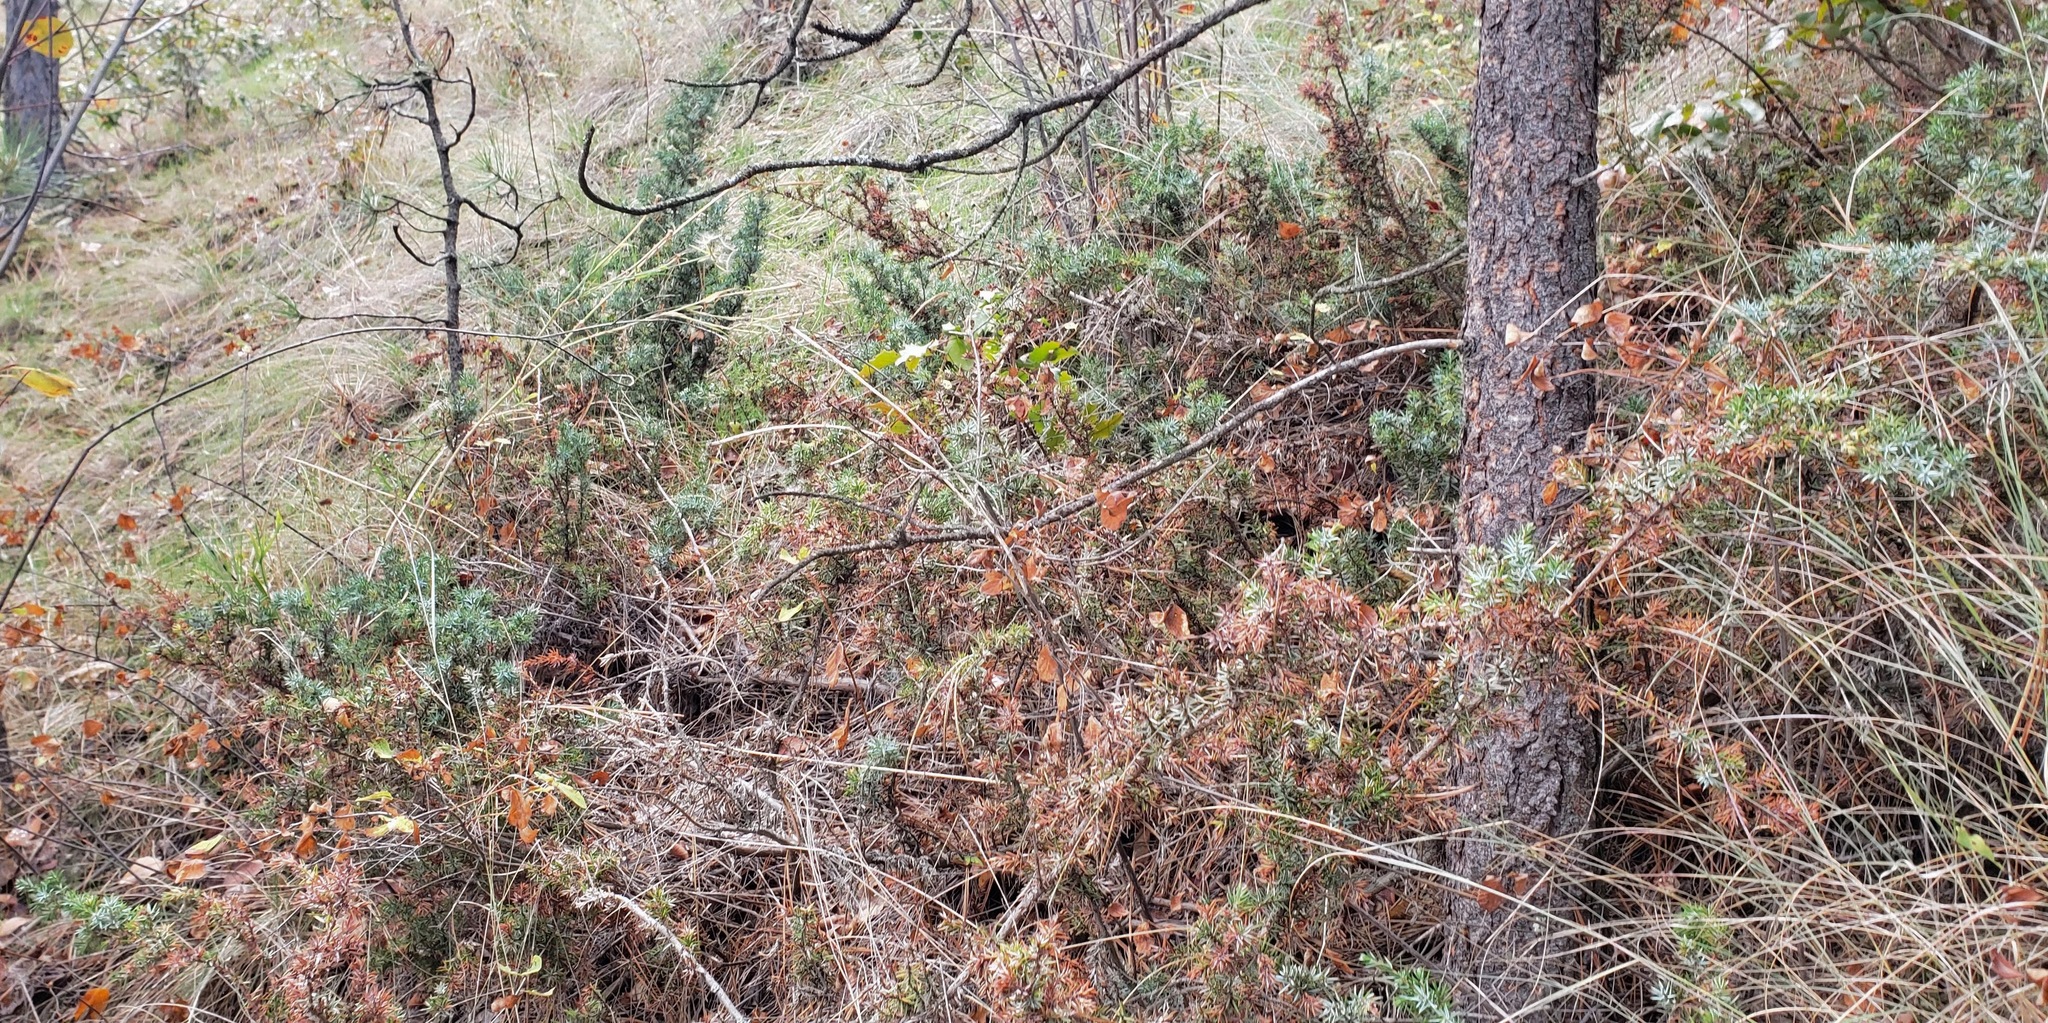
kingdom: Plantae
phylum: Tracheophyta
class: Pinopsida
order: Pinales
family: Cupressaceae
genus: Juniperus
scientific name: Juniperus communis
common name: Common juniper
